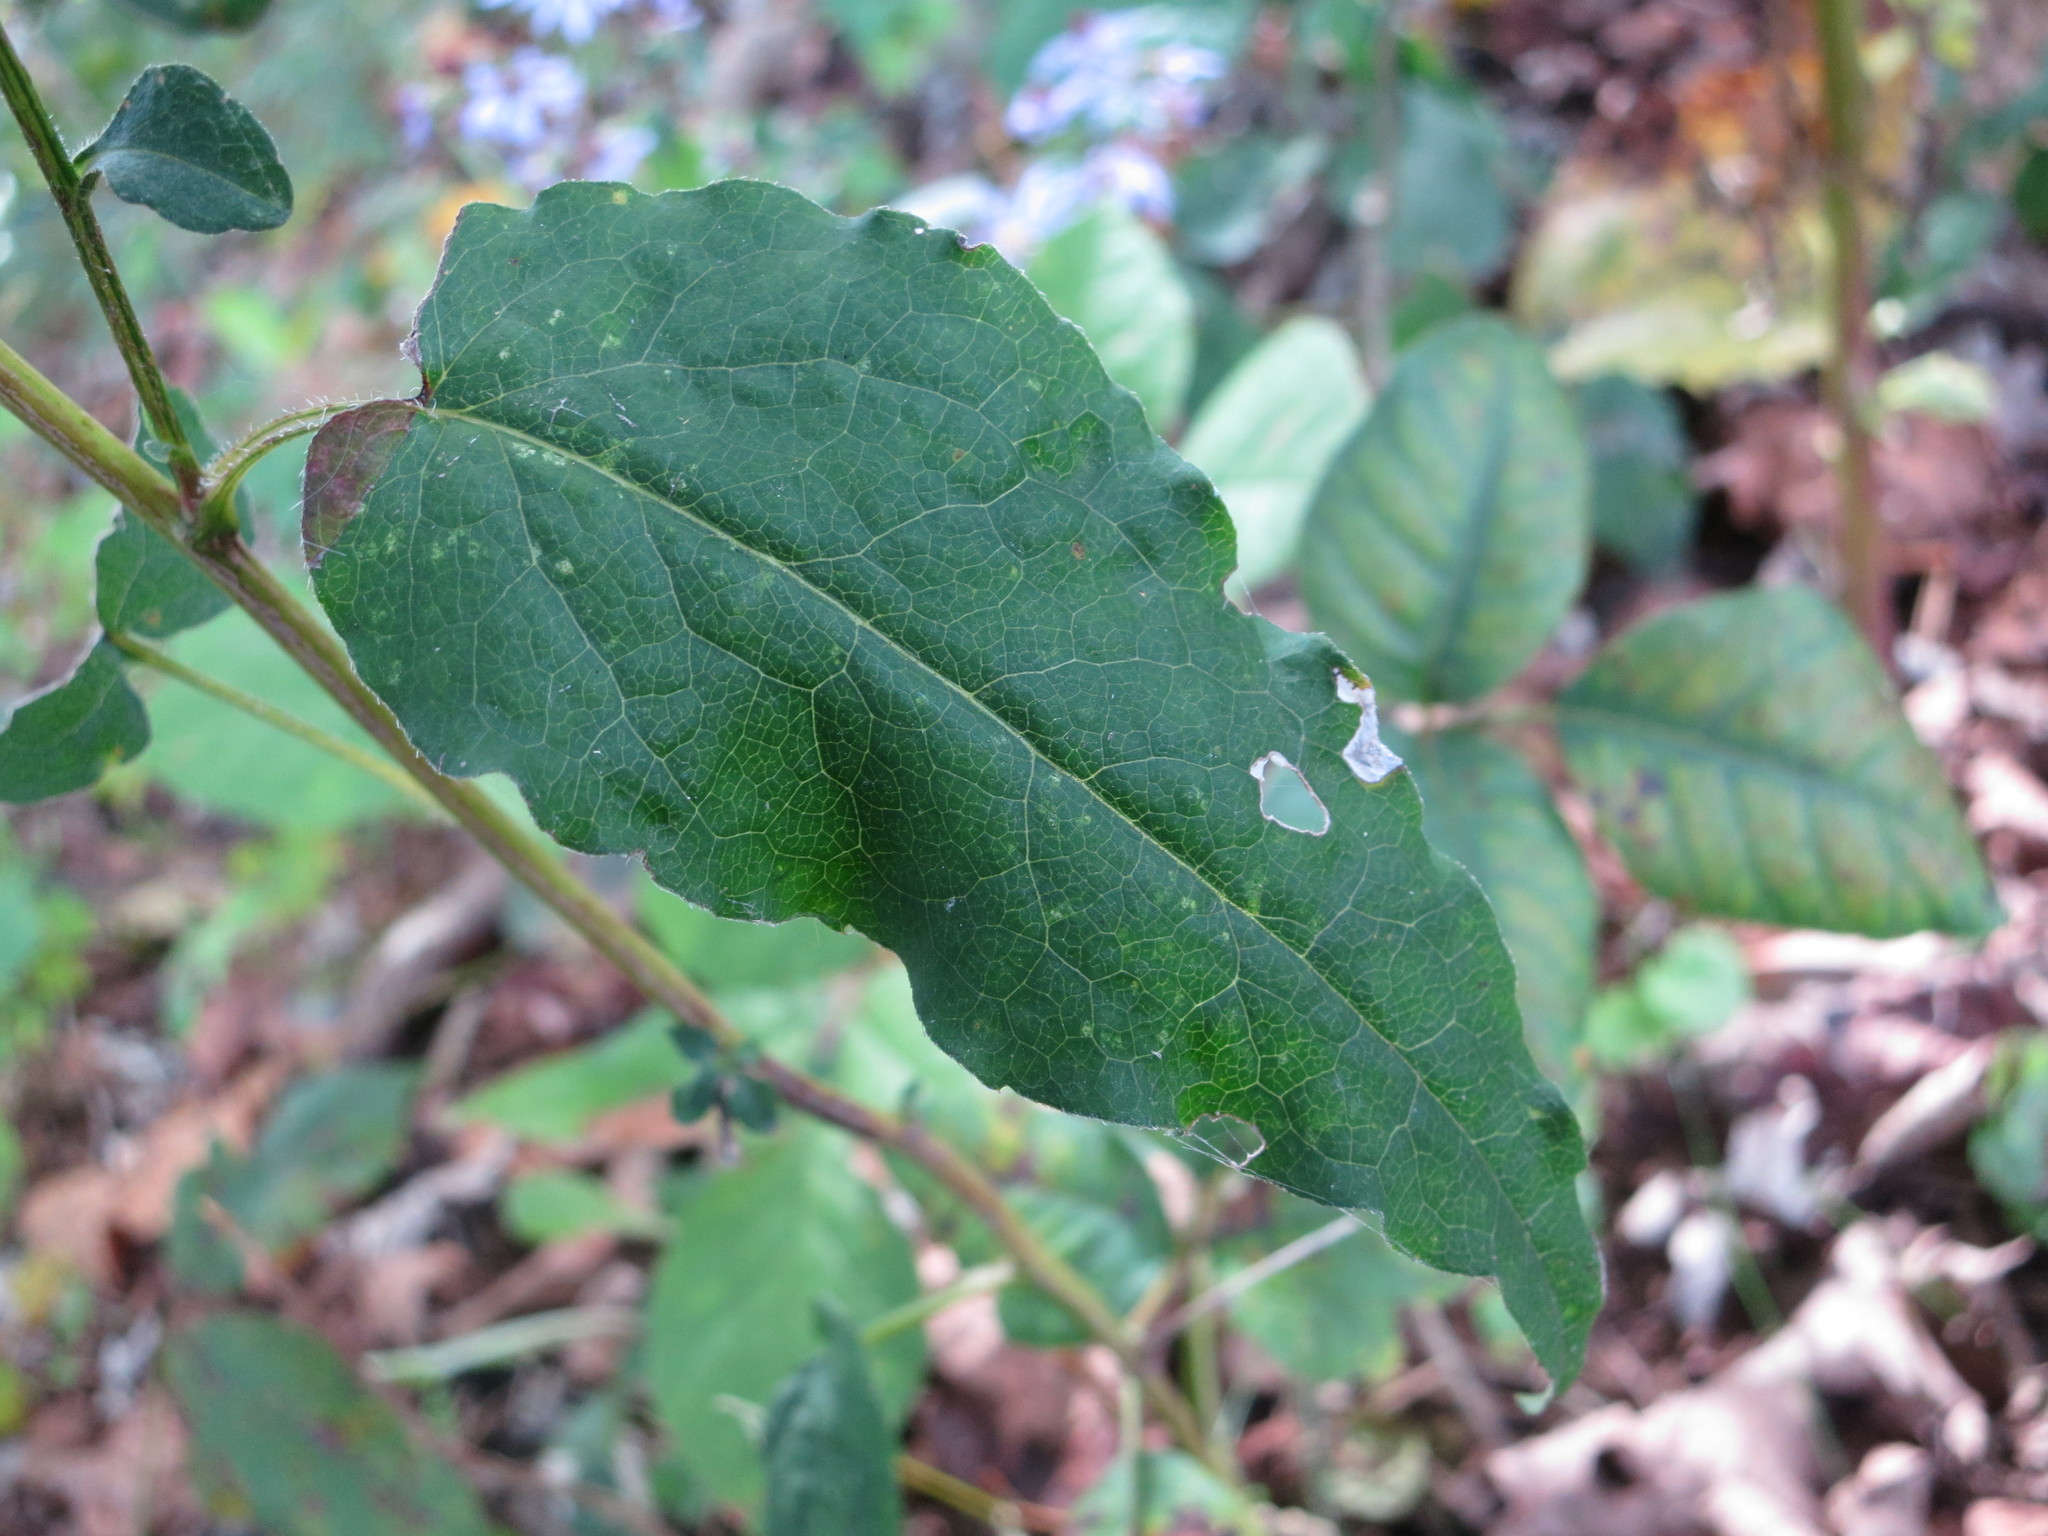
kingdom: Plantae
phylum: Tracheophyta
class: Magnoliopsida
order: Asterales
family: Asteraceae
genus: Symphyotrichum
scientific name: Symphyotrichum shortii
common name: Short's aster
